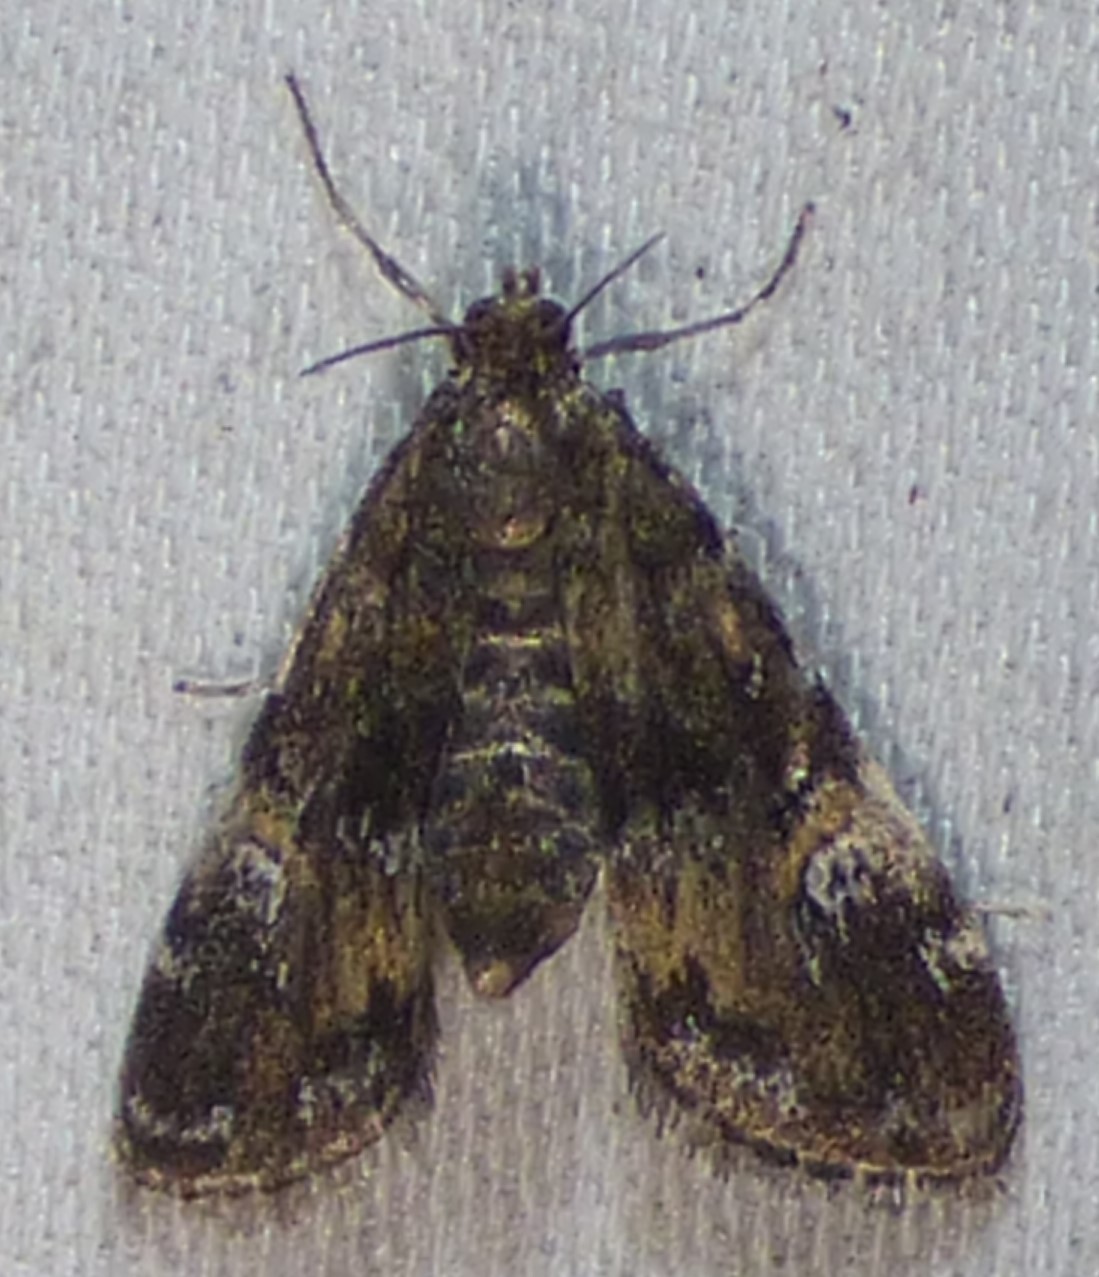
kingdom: Animalia
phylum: Arthropoda
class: Insecta
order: Lepidoptera
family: Crambidae
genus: Elophila
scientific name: Elophila obliteralis
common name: Waterlily leafcutter moth
